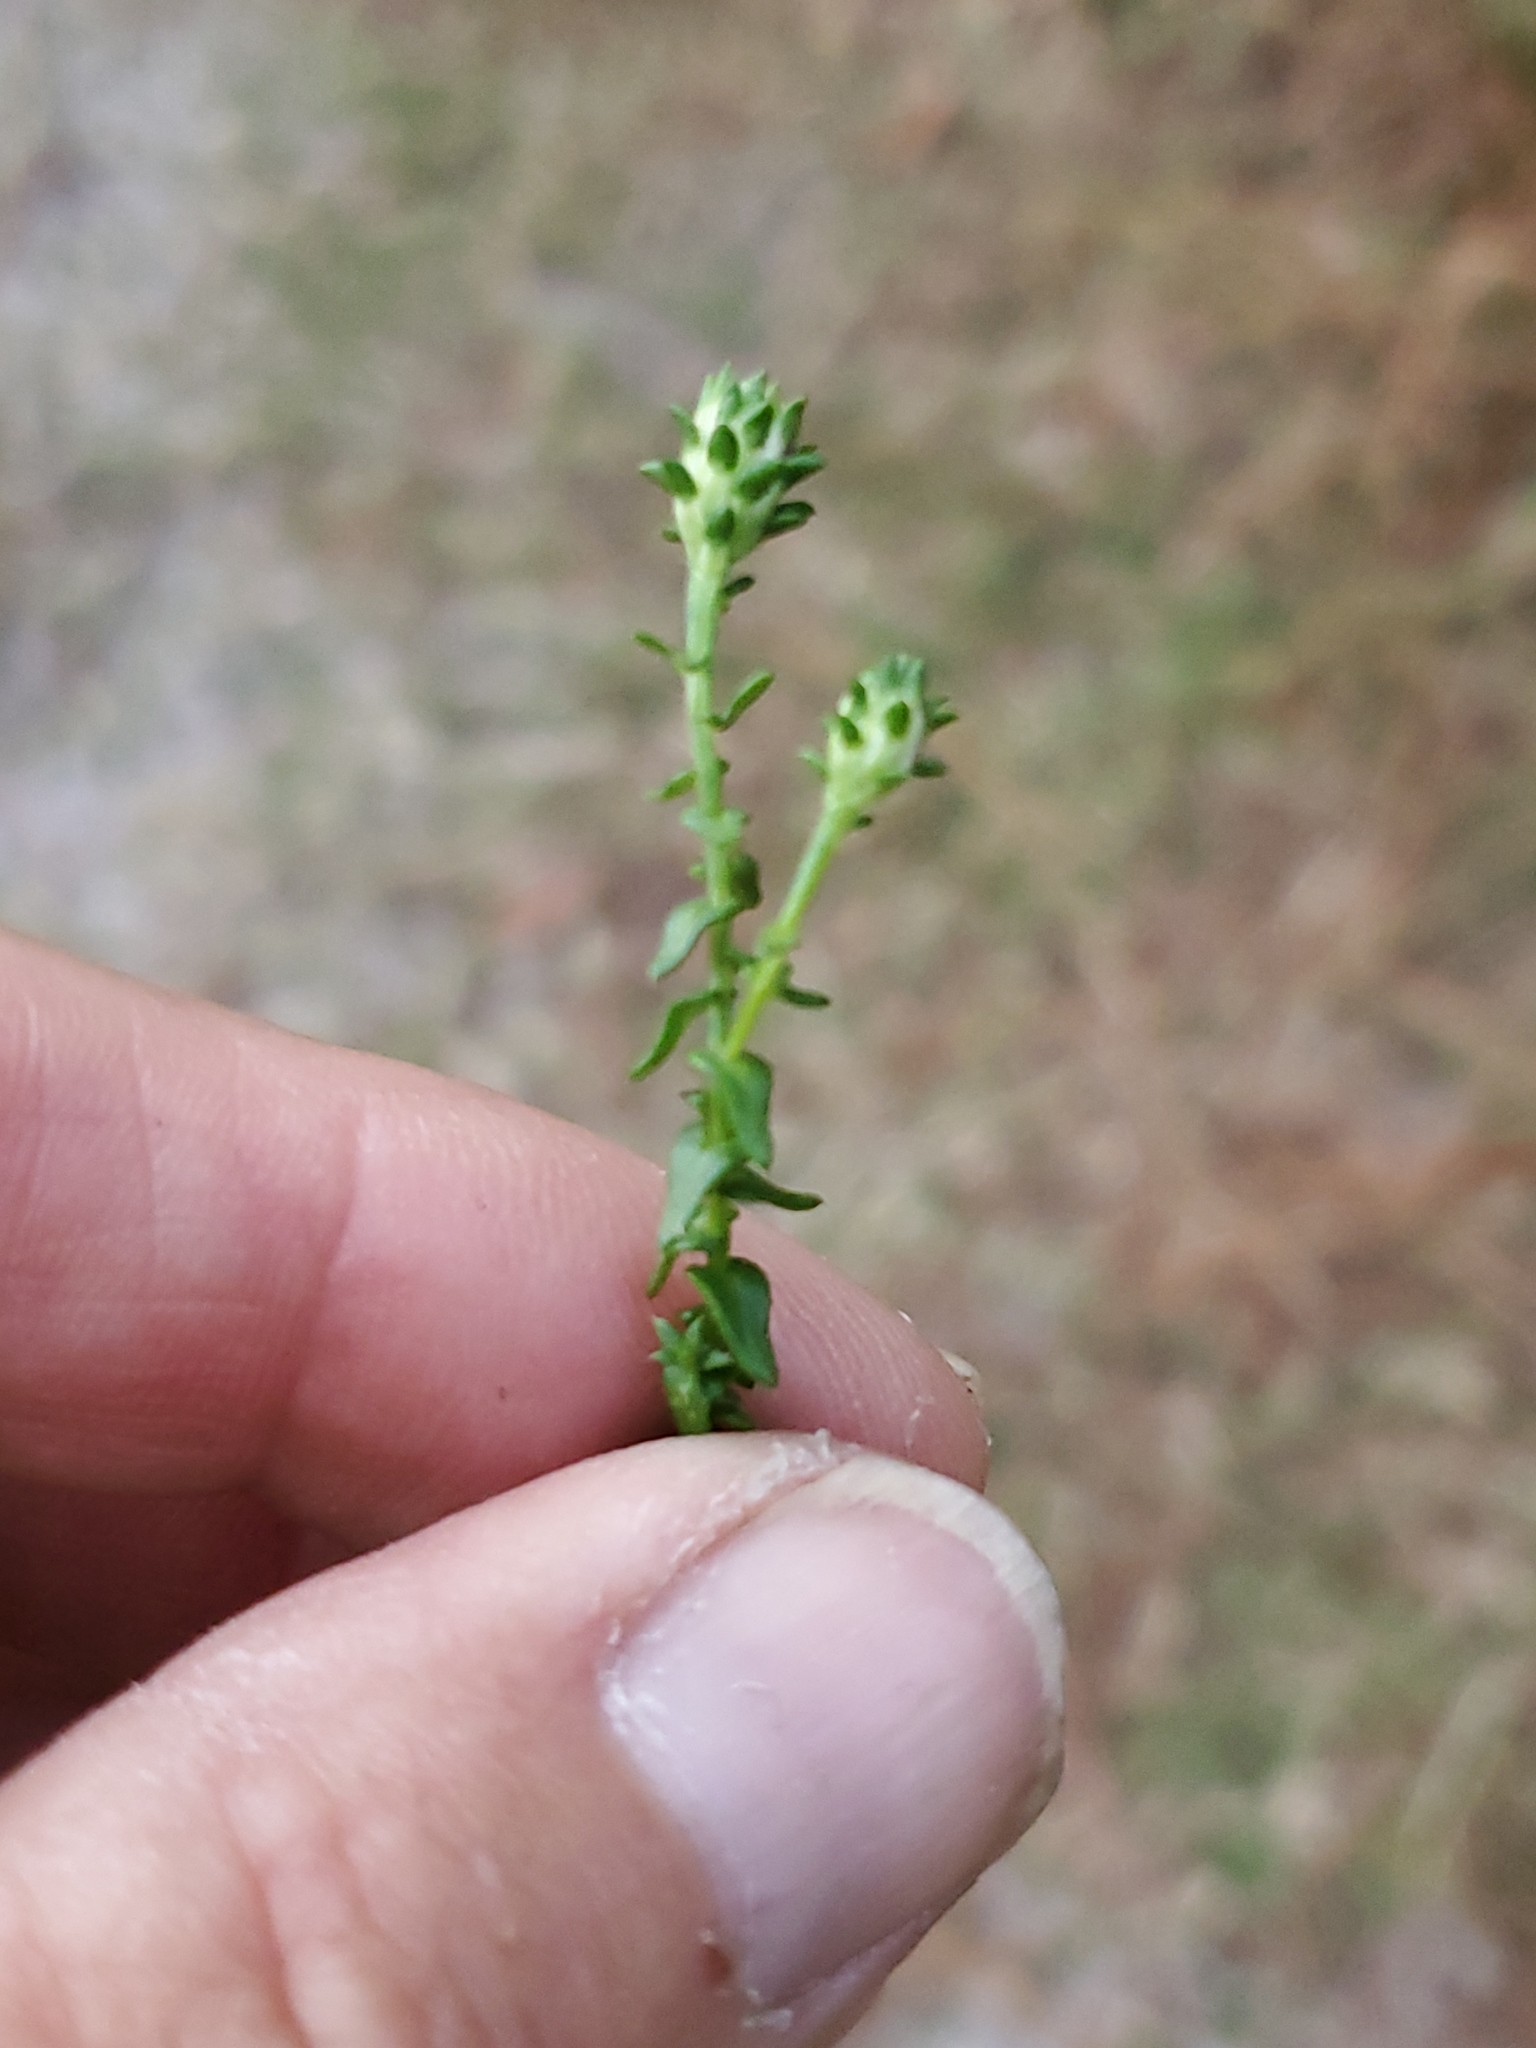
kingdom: Plantae
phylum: Tracheophyta
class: Magnoliopsida
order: Asterales
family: Asteraceae
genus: Symphyotrichum
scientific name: Symphyotrichum walteri
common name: Walter's aster
